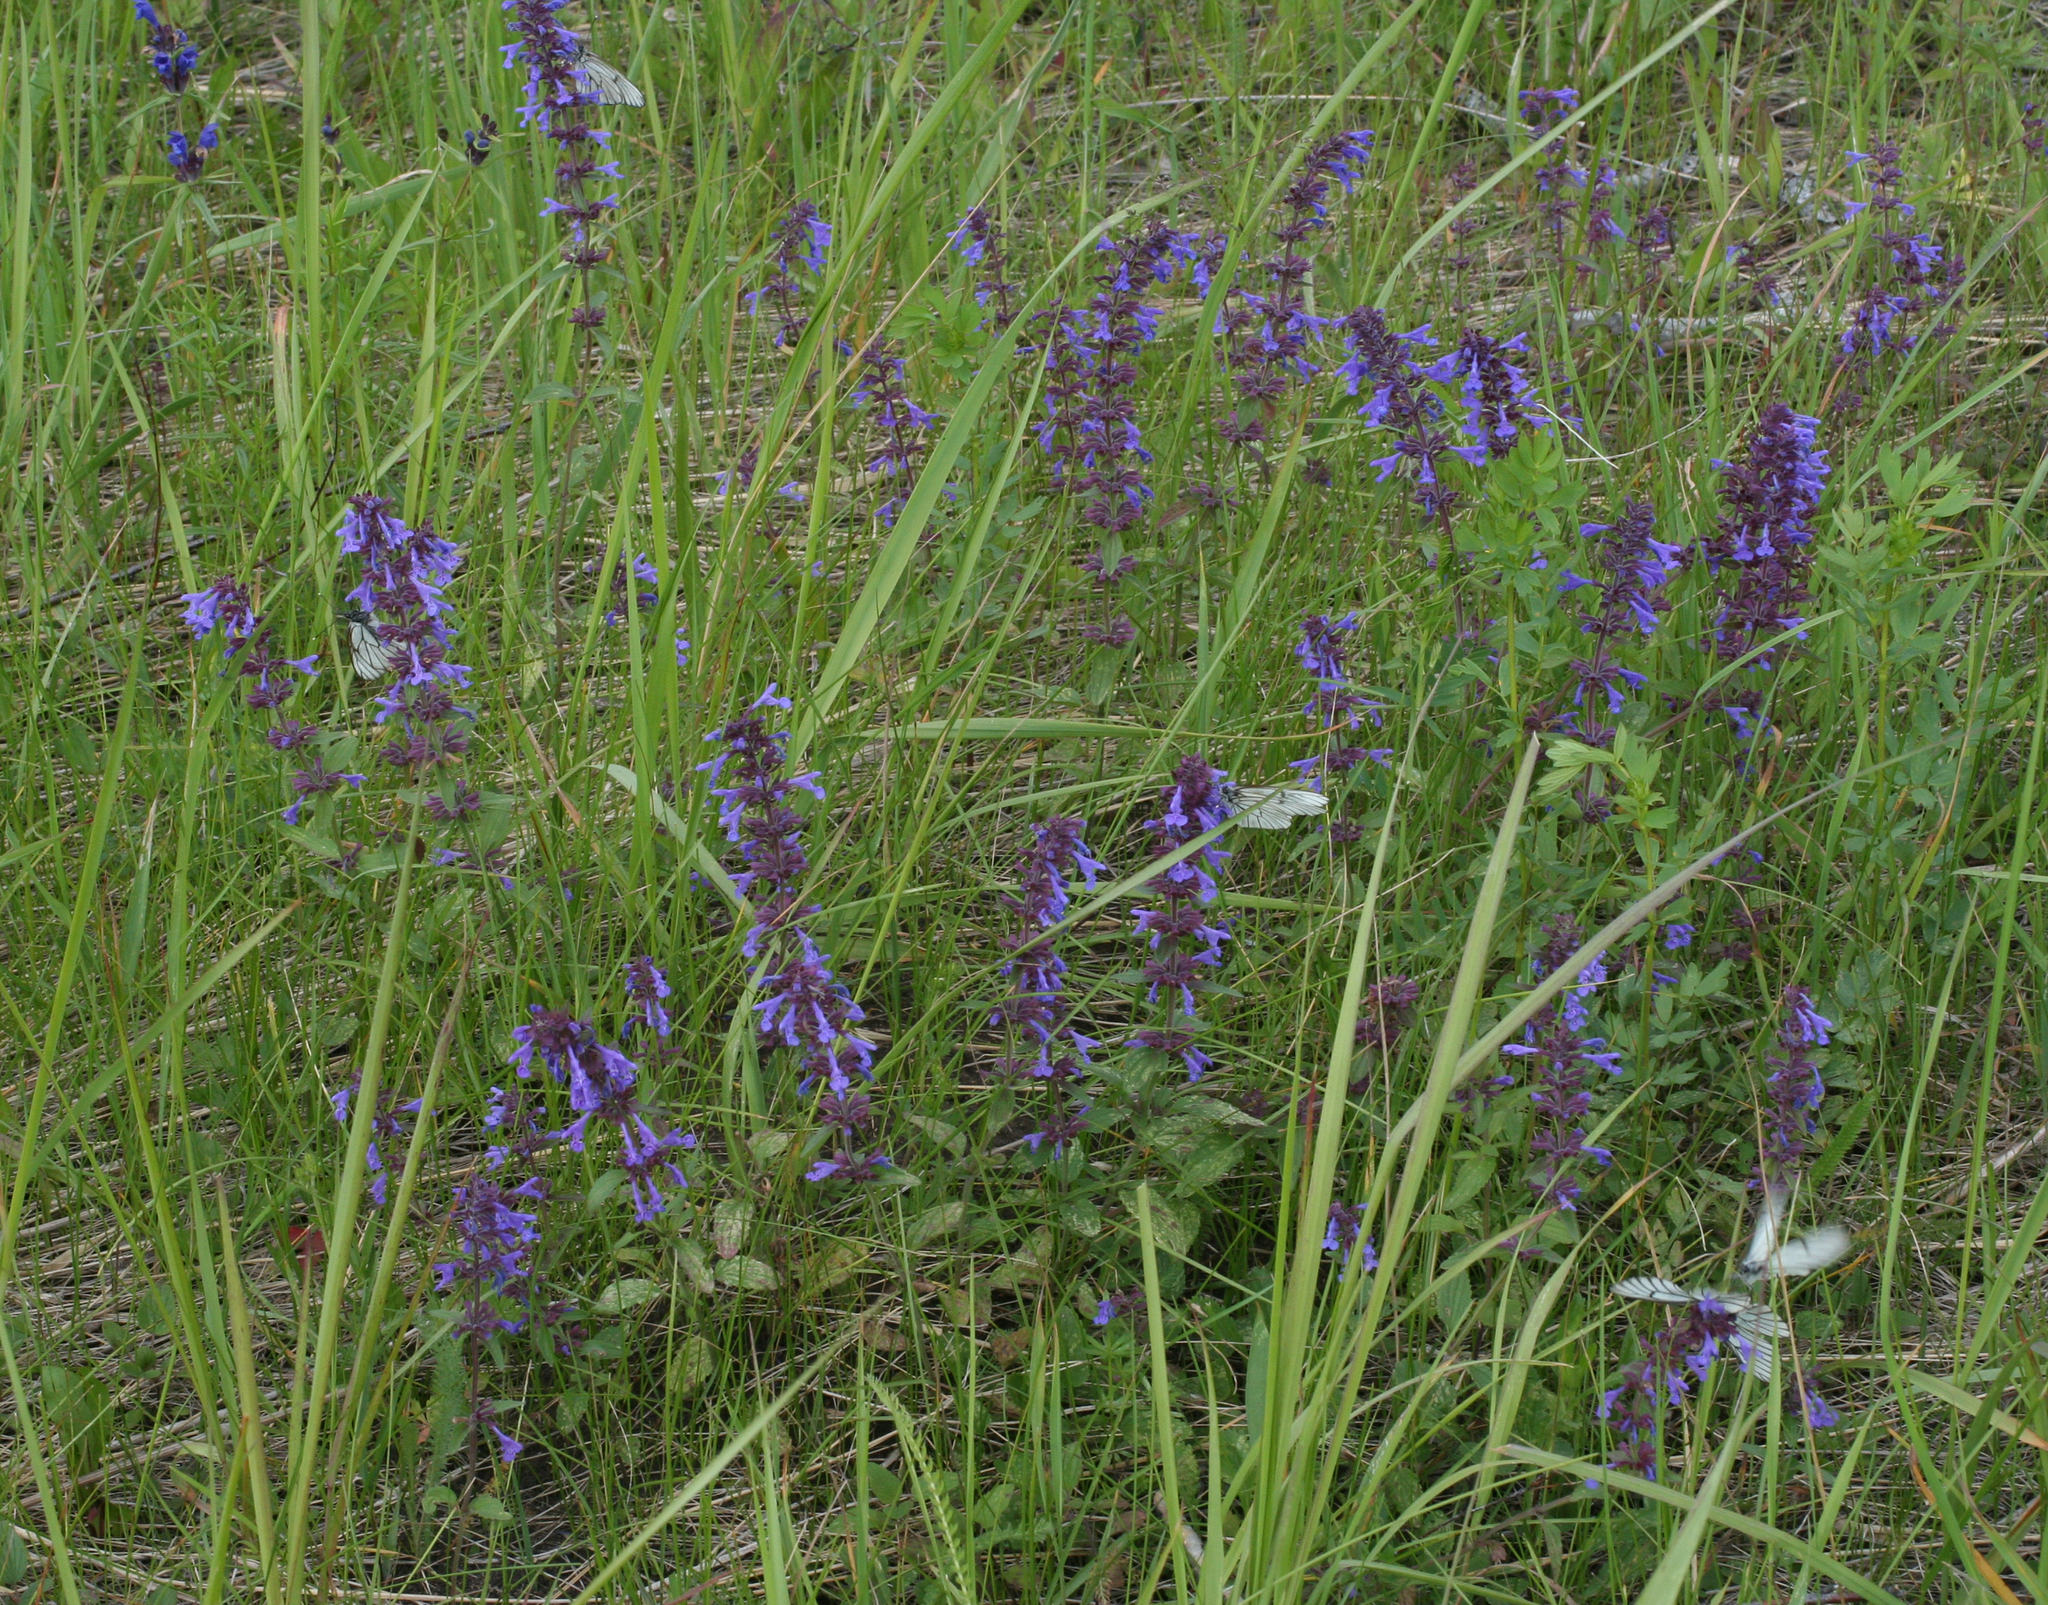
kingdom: Plantae
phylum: Tracheophyta
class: Magnoliopsida
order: Lamiales
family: Lamiaceae
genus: Dracocephalum
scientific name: Dracocephalum nutans
